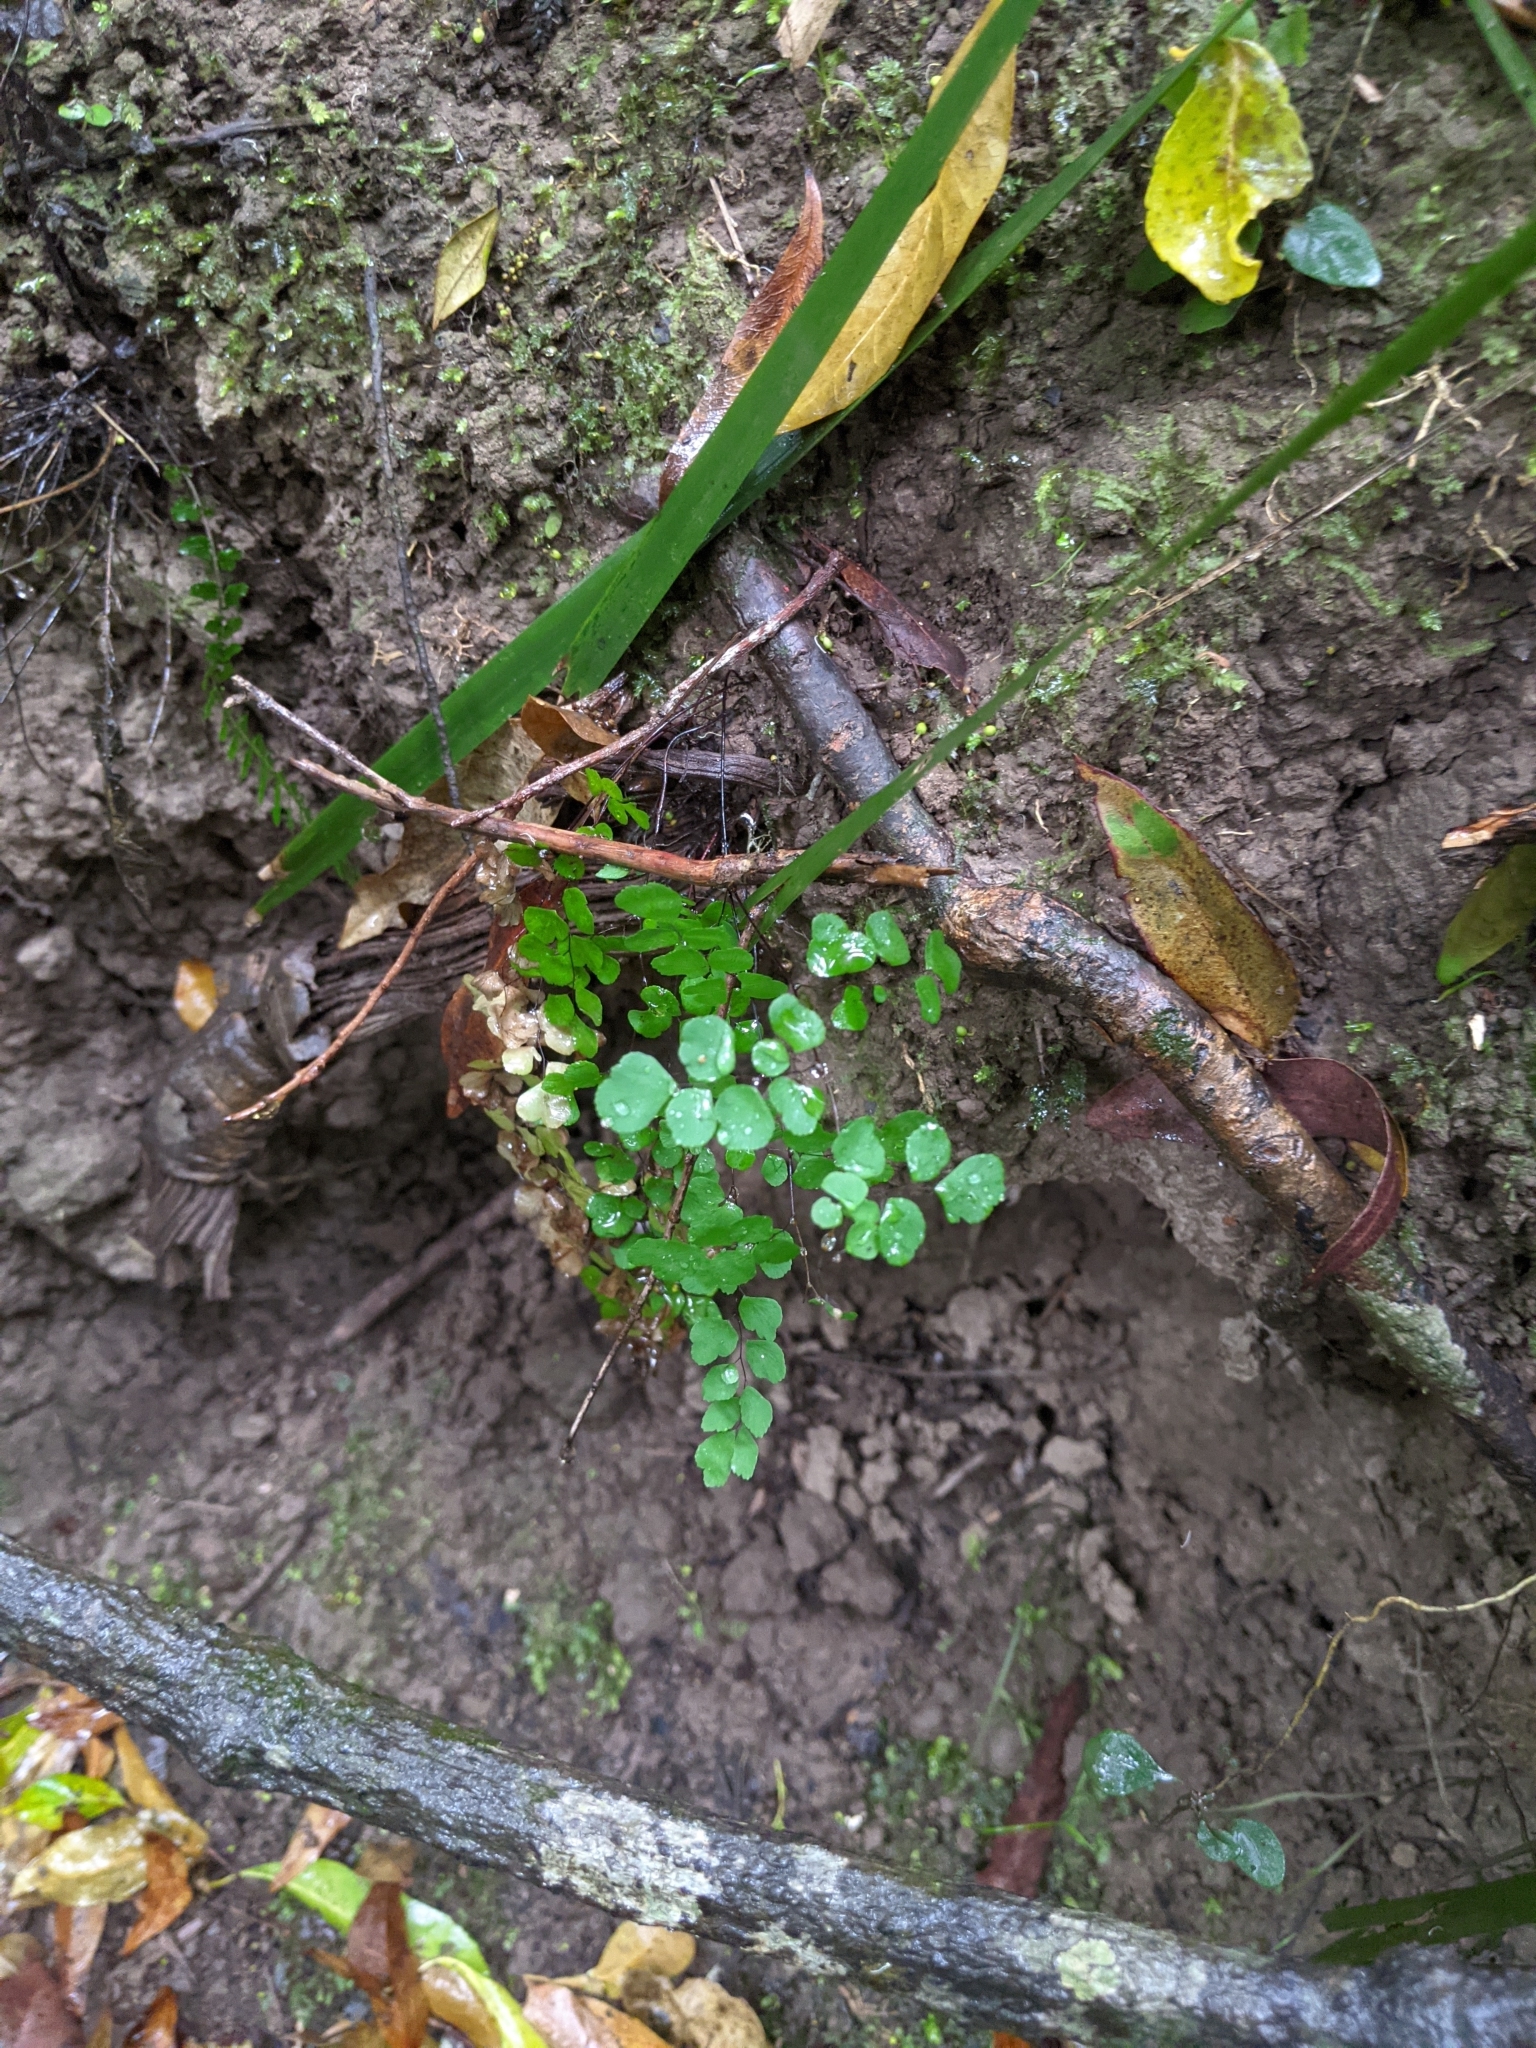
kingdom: Plantae
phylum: Tracheophyta
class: Polypodiopsida
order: Polypodiales
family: Pteridaceae
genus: Adiantum
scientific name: Adiantum aethiopicum
